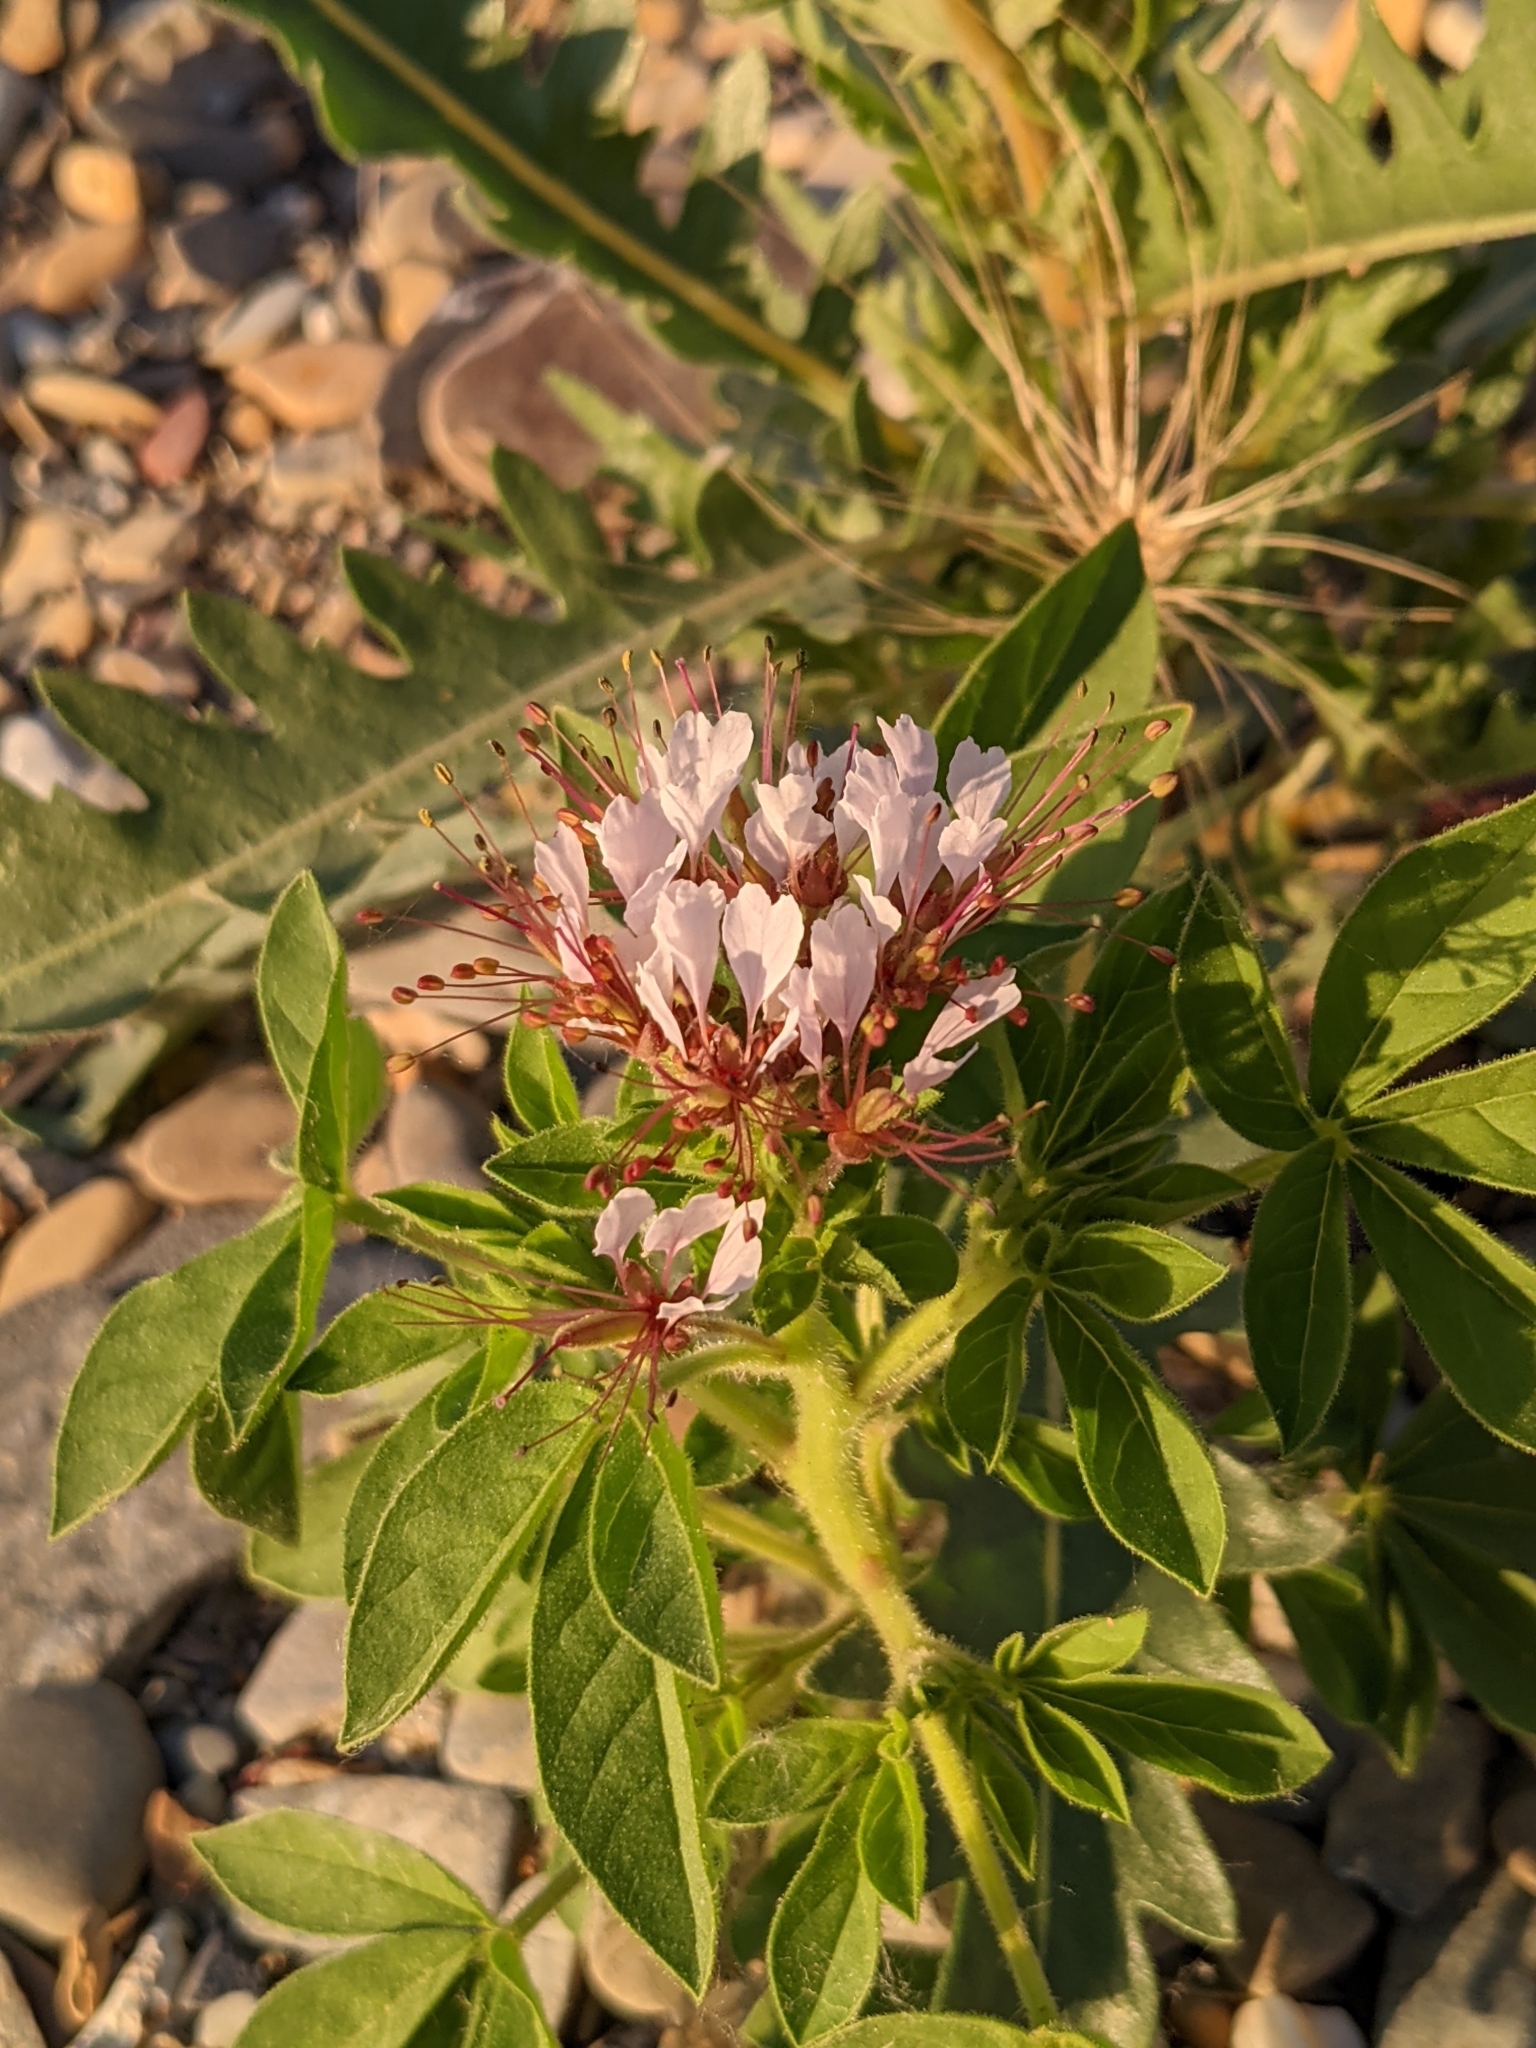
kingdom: Plantae
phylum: Tracheophyta
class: Magnoliopsida
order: Brassicales
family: Cleomaceae
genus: Polanisia
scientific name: Polanisia dodecandra
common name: Clammyweed
